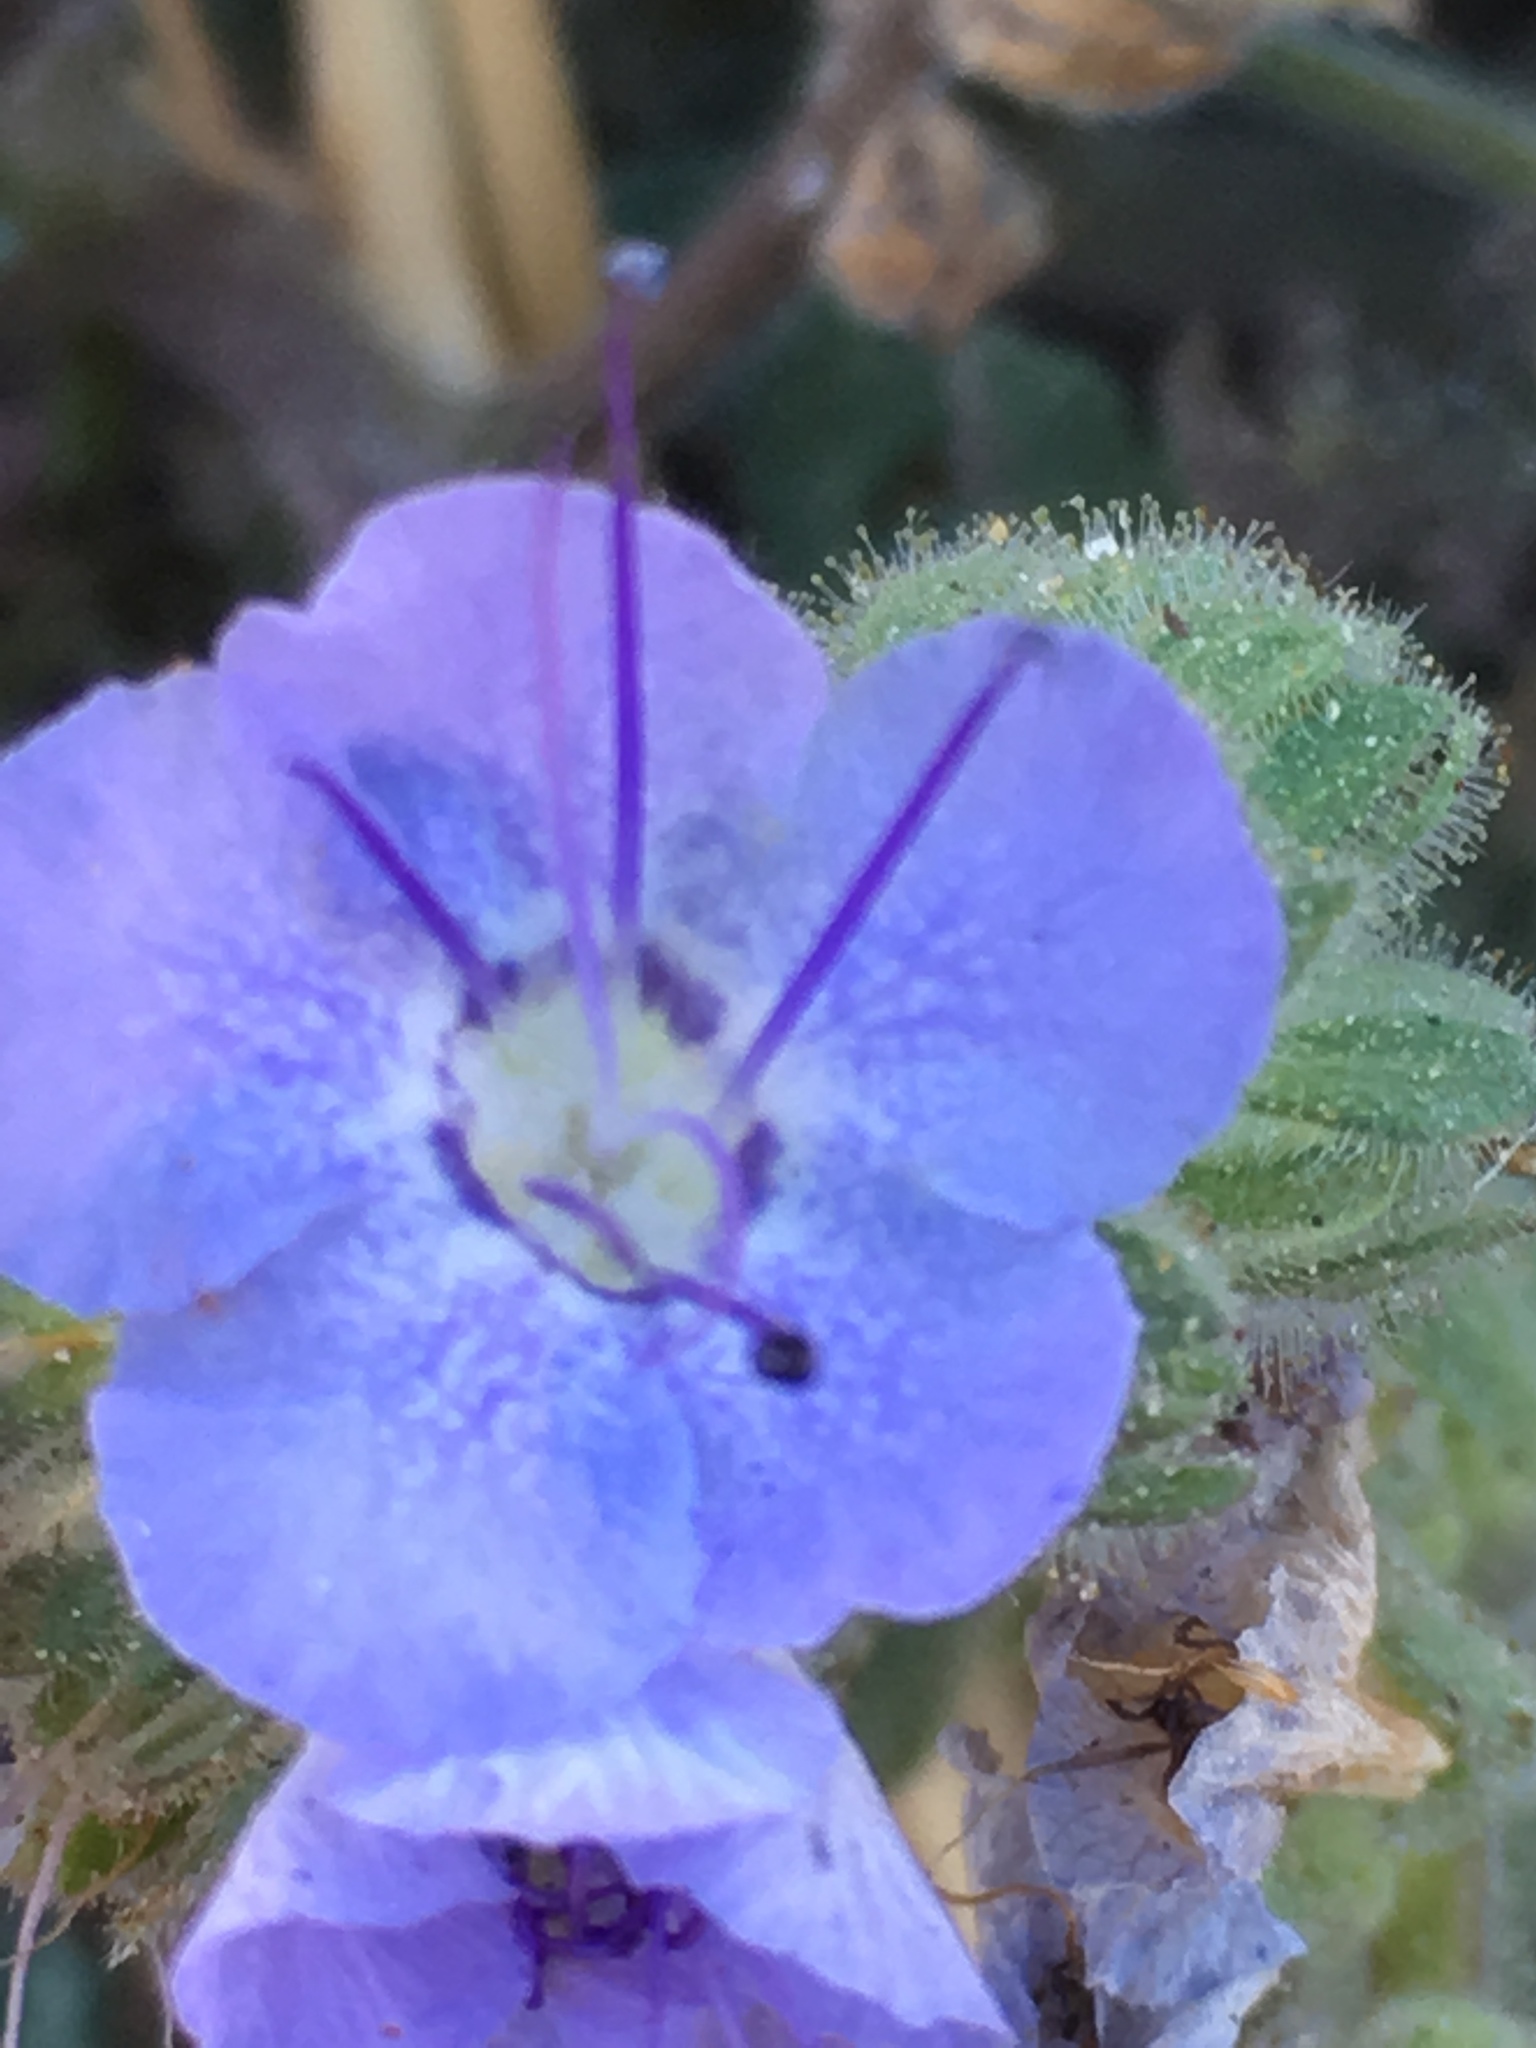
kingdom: Plantae
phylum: Tracheophyta
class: Magnoliopsida
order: Boraginales
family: Hydrophyllaceae
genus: Phacelia
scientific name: Phacelia distans
